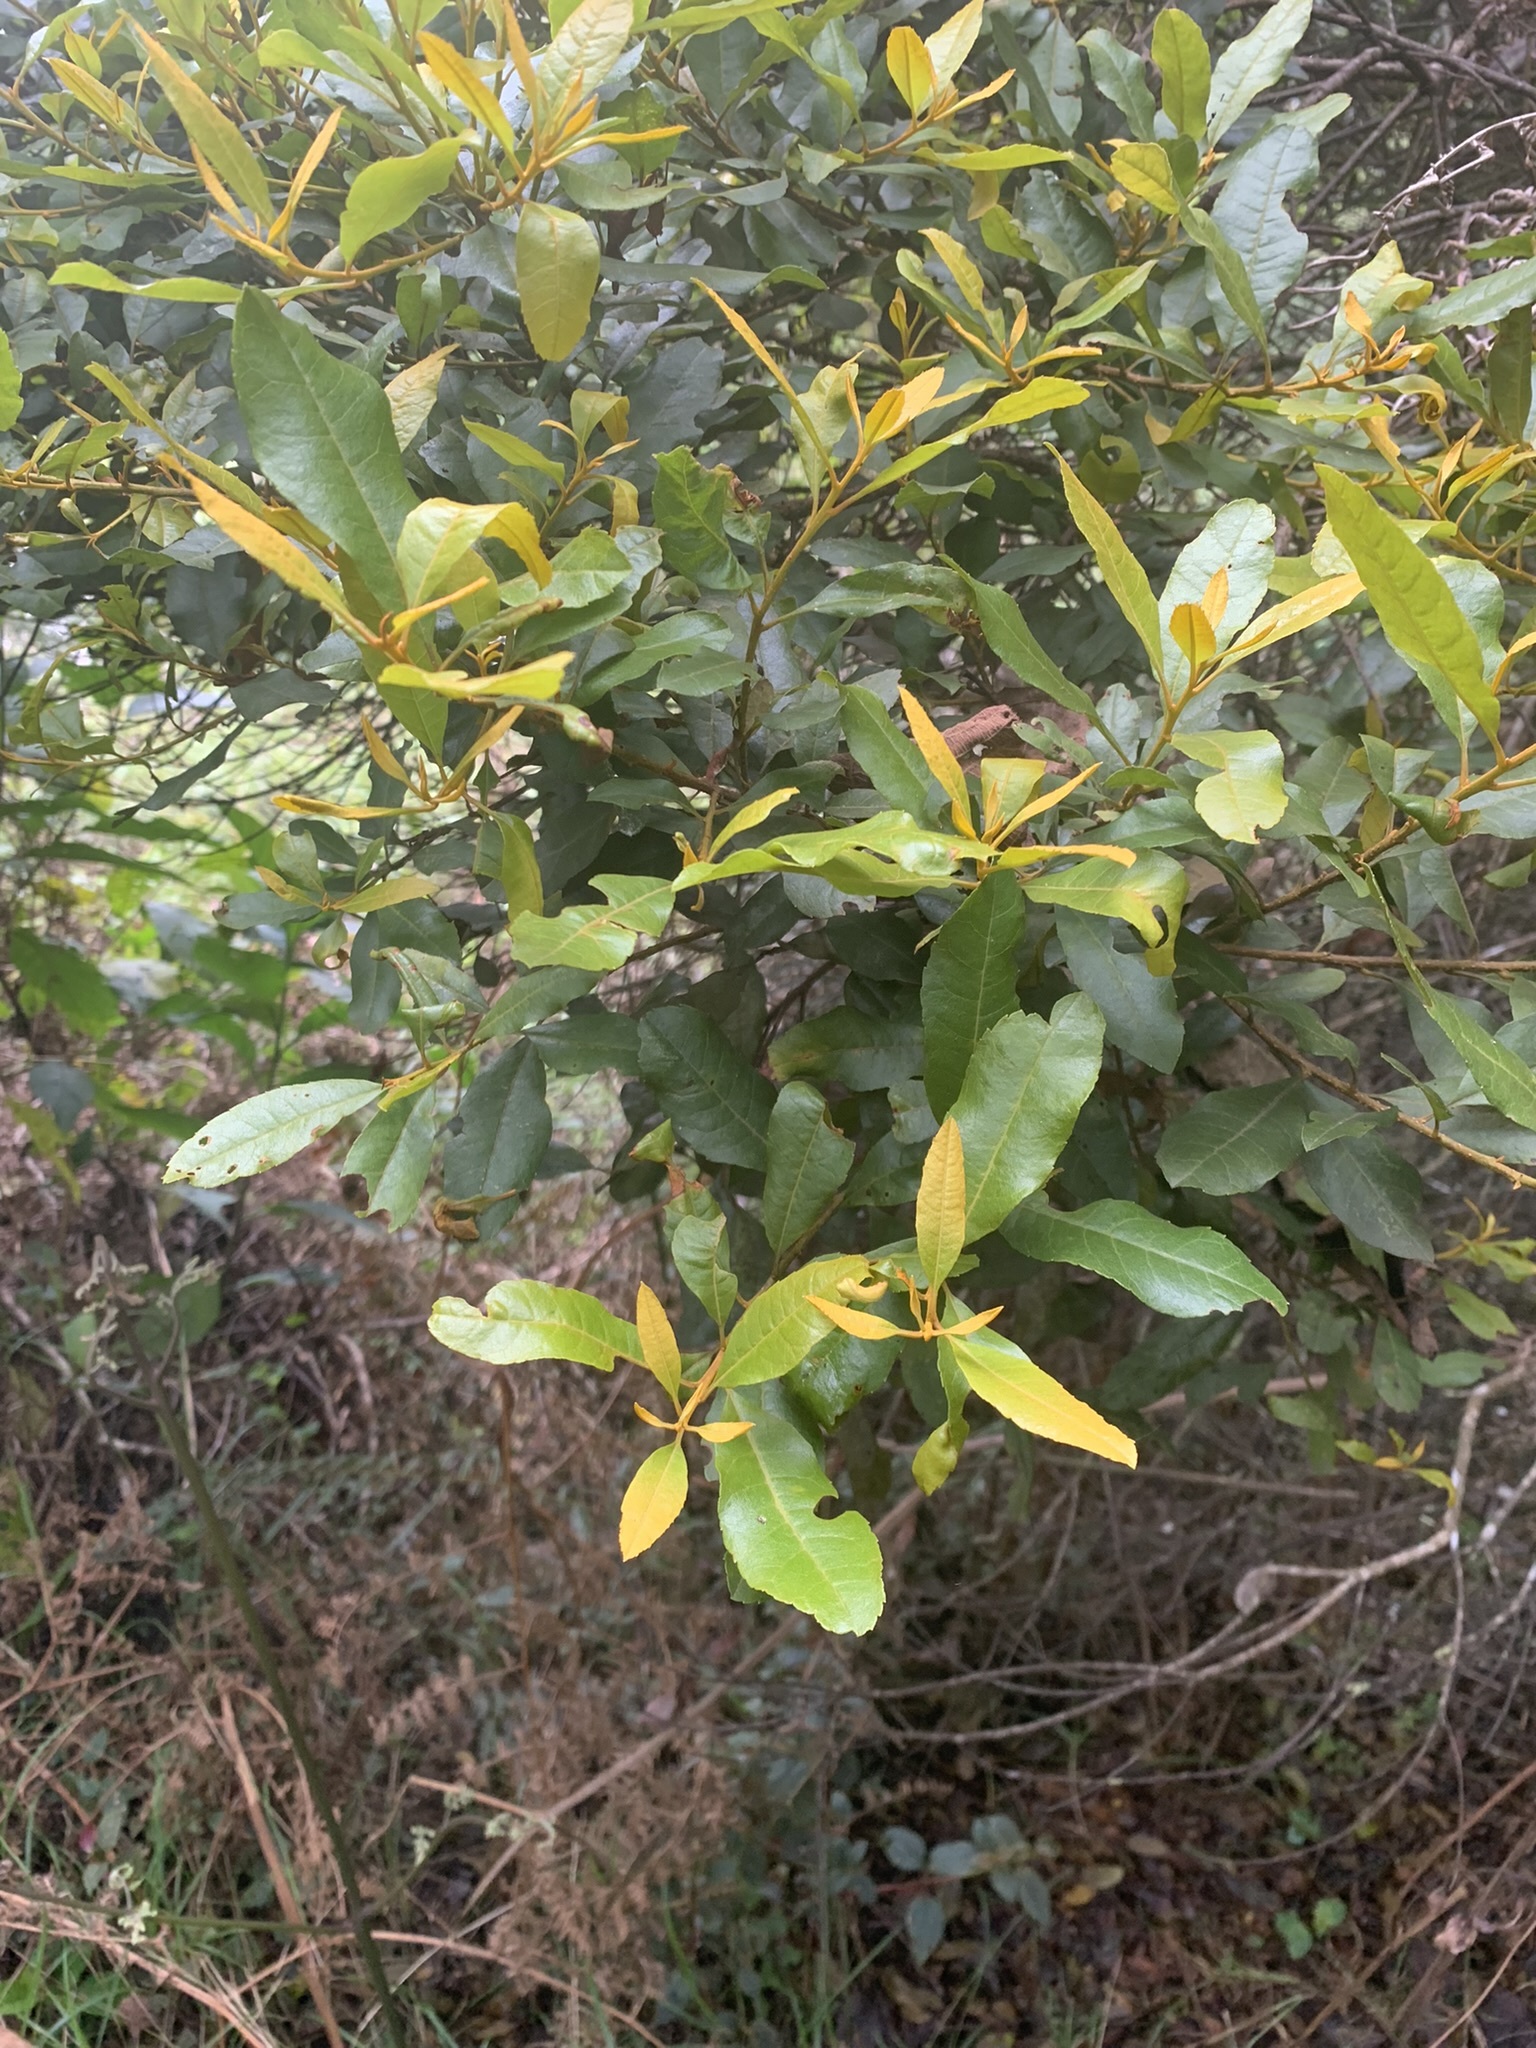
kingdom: Plantae
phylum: Tracheophyta
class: Magnoliopsida
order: Apiales
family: Pittosporaceae
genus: Pittosporum
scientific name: Pittosporum undulatum
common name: Australian cheesewood
